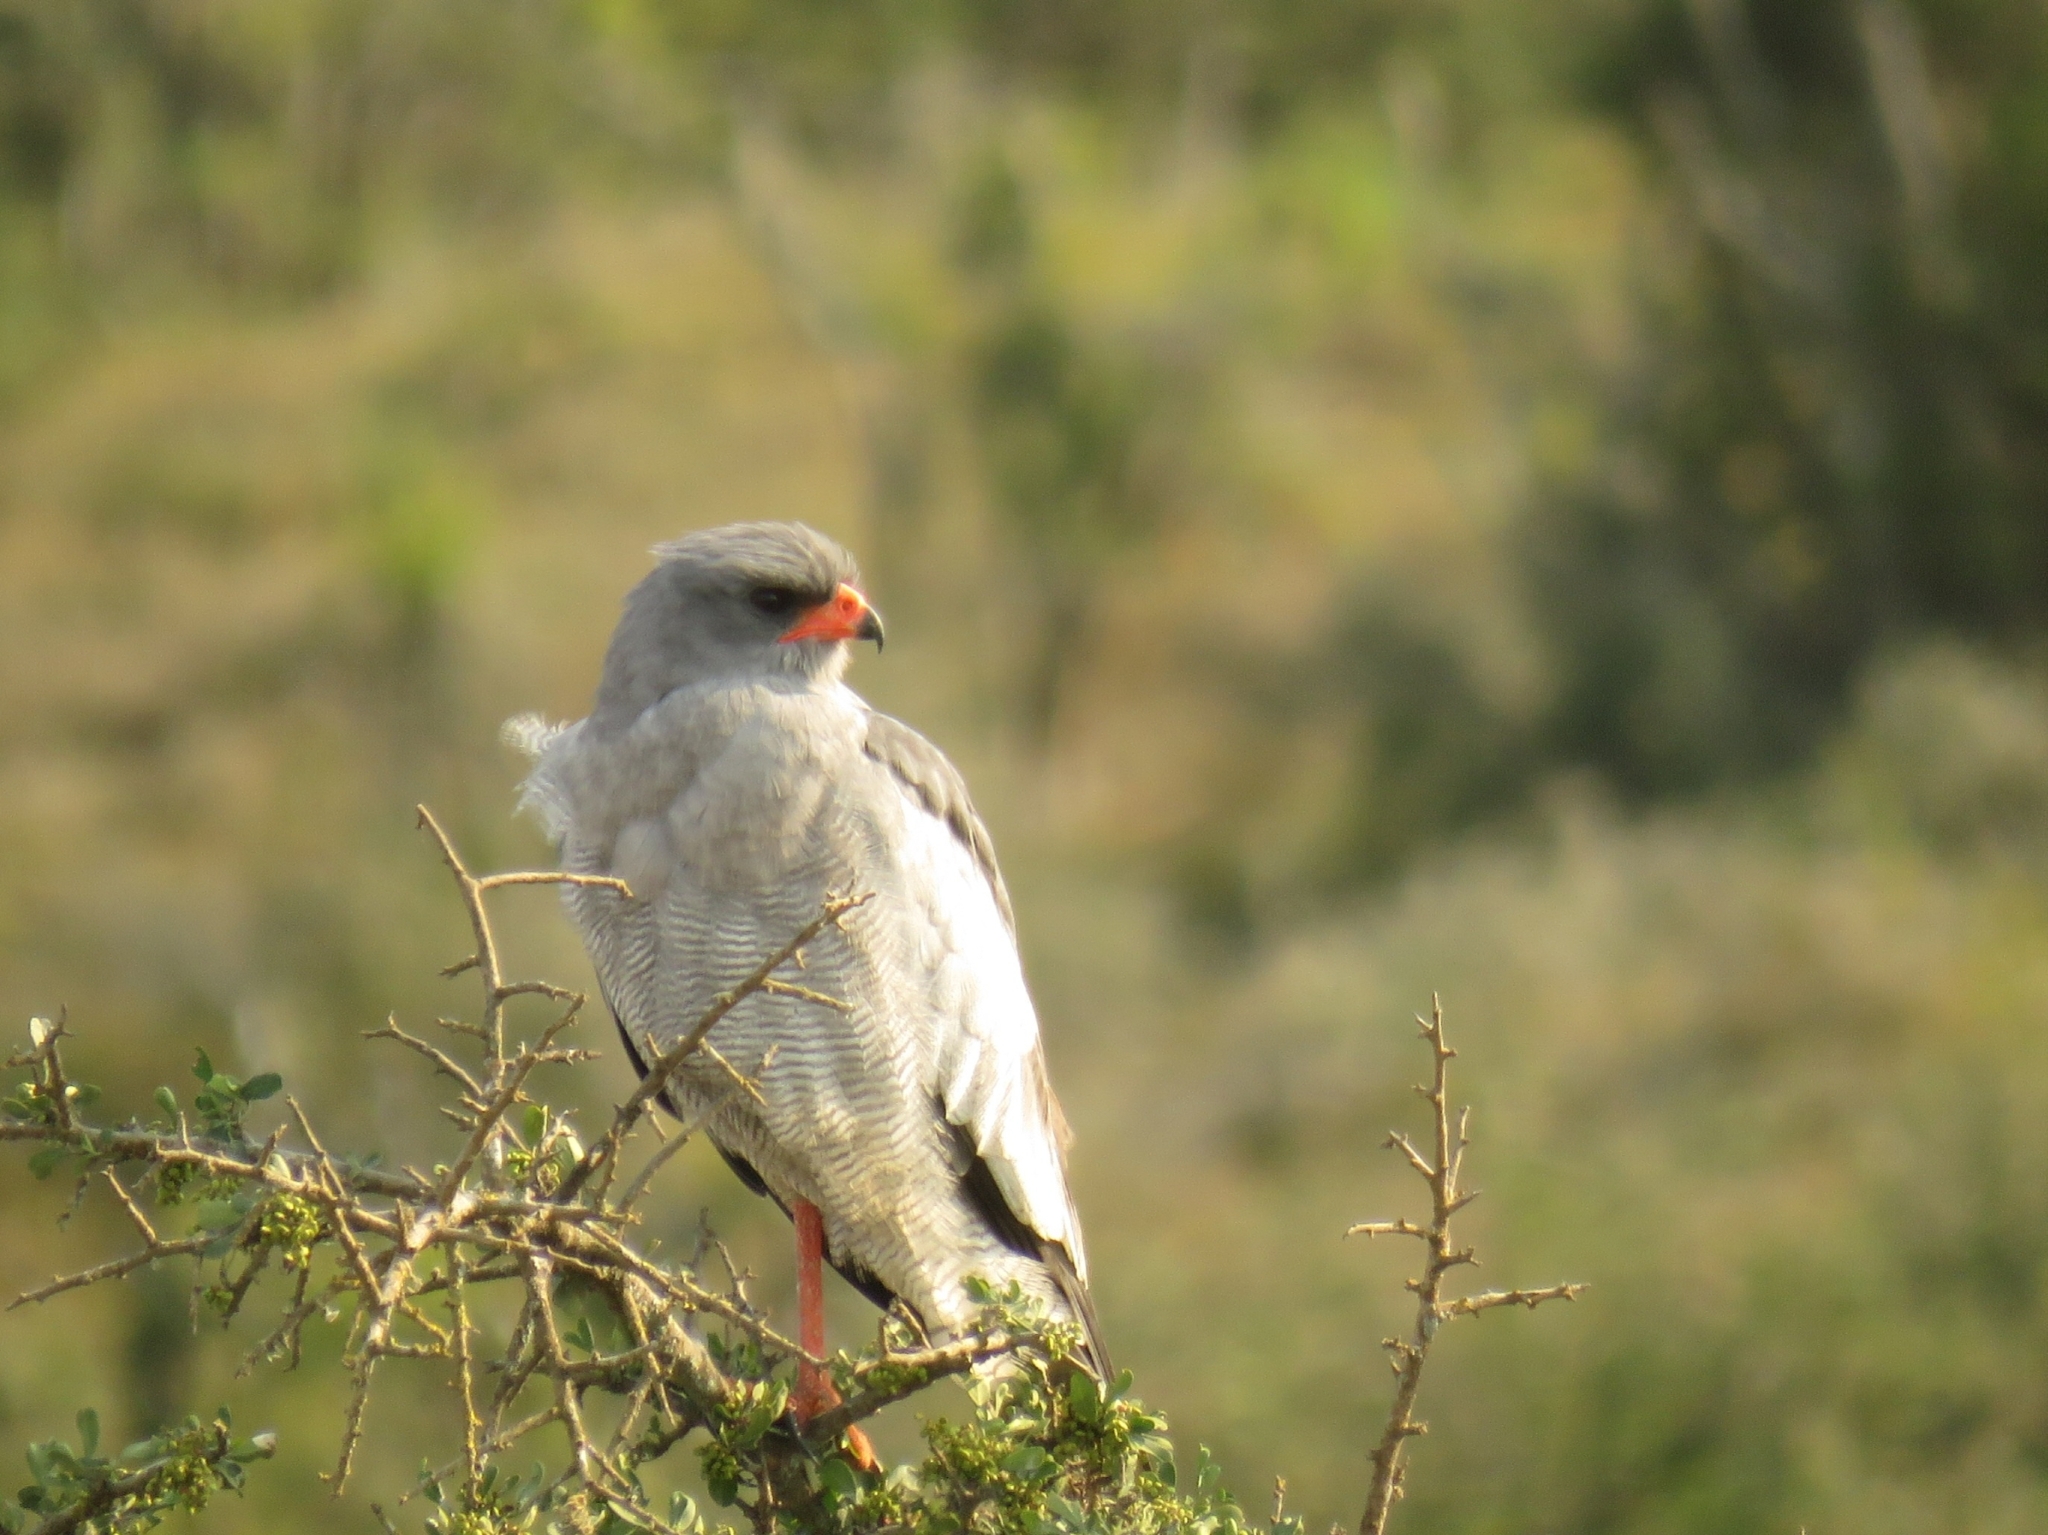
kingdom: Animalia
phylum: Chordata
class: Aves
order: Accipitriformes
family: Accipitridae
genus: Melierax
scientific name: Melierax canorus
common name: Pale chanting-goshawk
